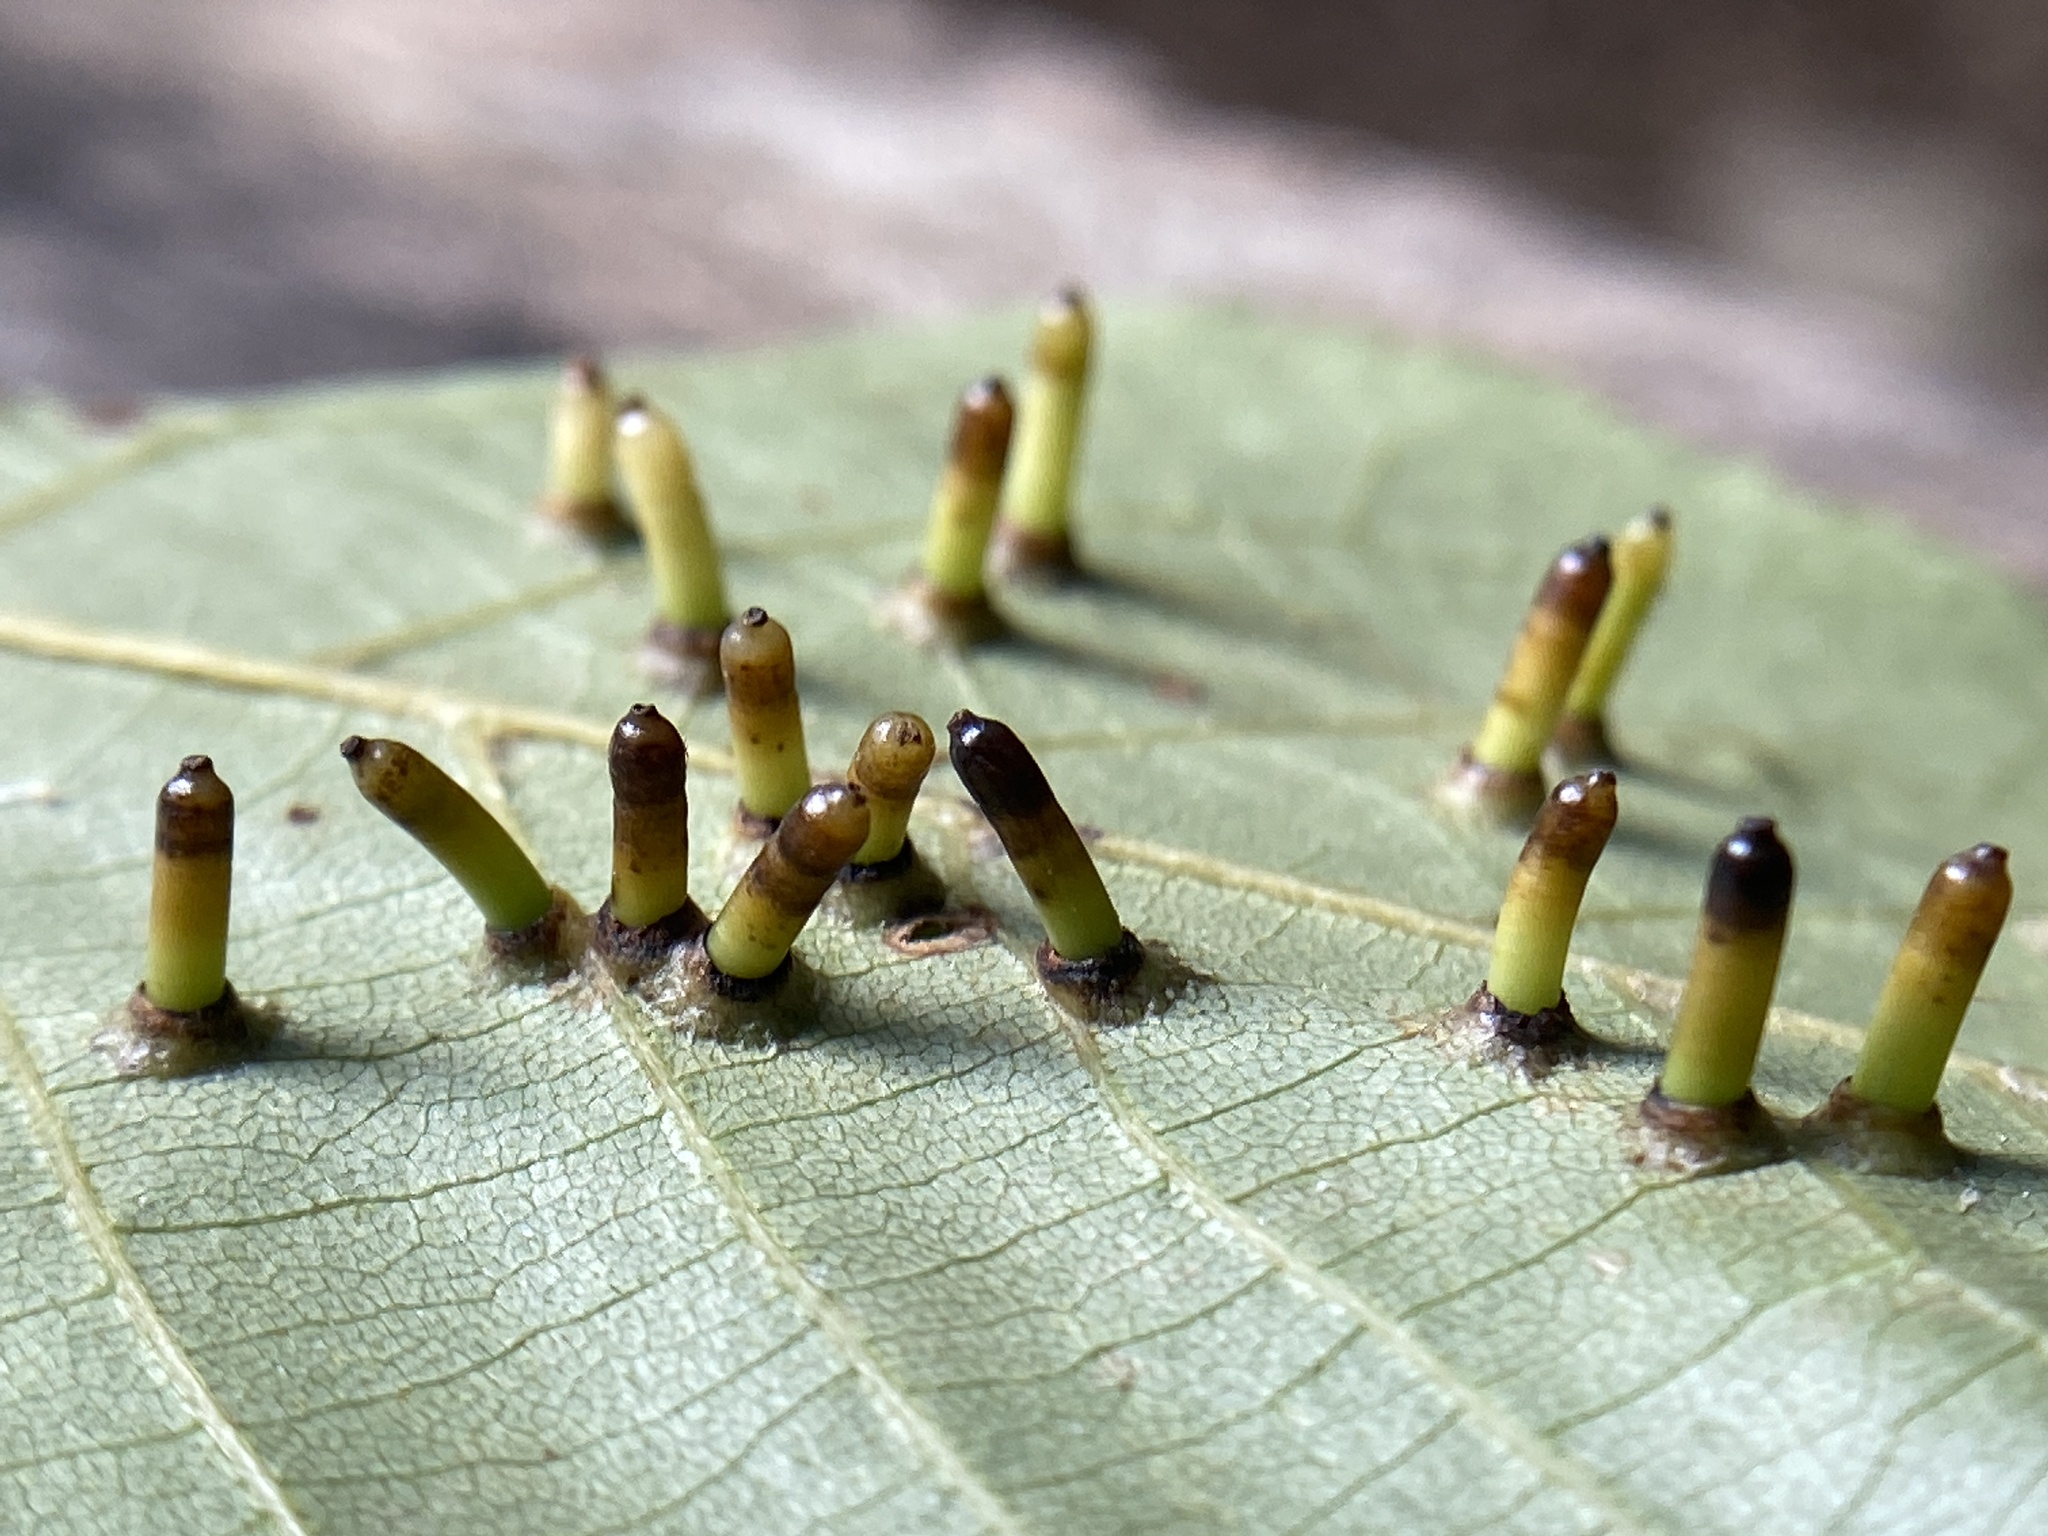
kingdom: Animalia
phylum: Arthropoda
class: Insecta
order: Diptera
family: Cecidomyiidae
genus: Caryomyia
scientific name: Caryomyia tubicola
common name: Hickory bullet gall midge
